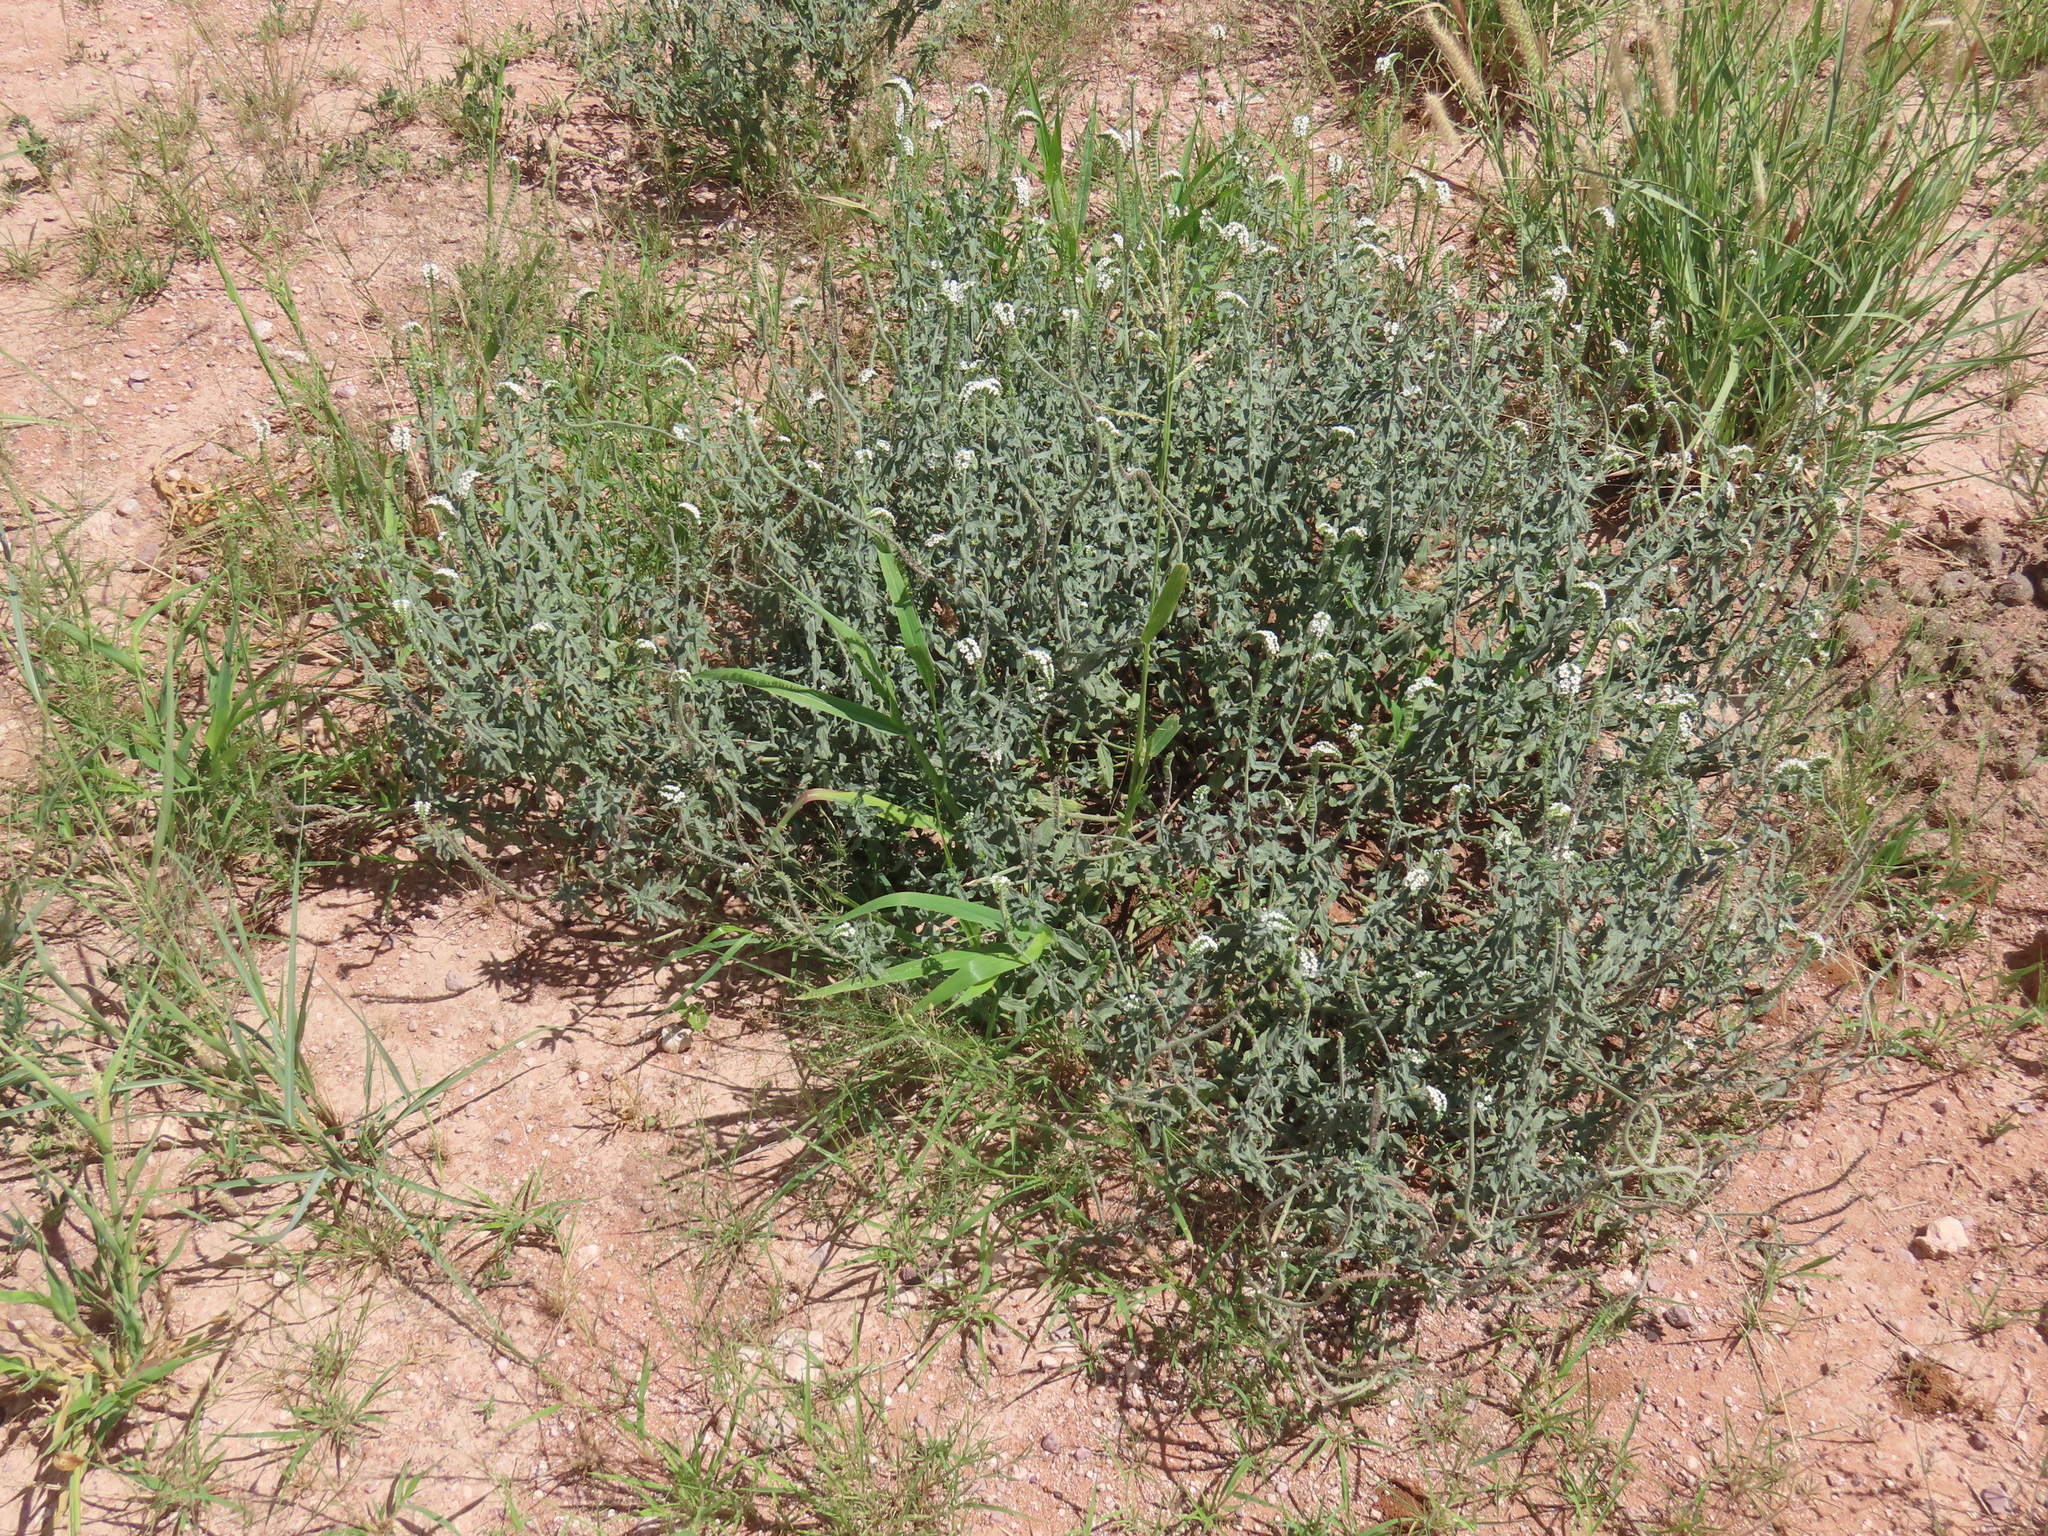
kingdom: Plantae
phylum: Tracheophyta
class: Magnoliopsida
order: Boraginales
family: Heliotropiaceae
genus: Euploca
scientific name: Euploca ovalifolia
